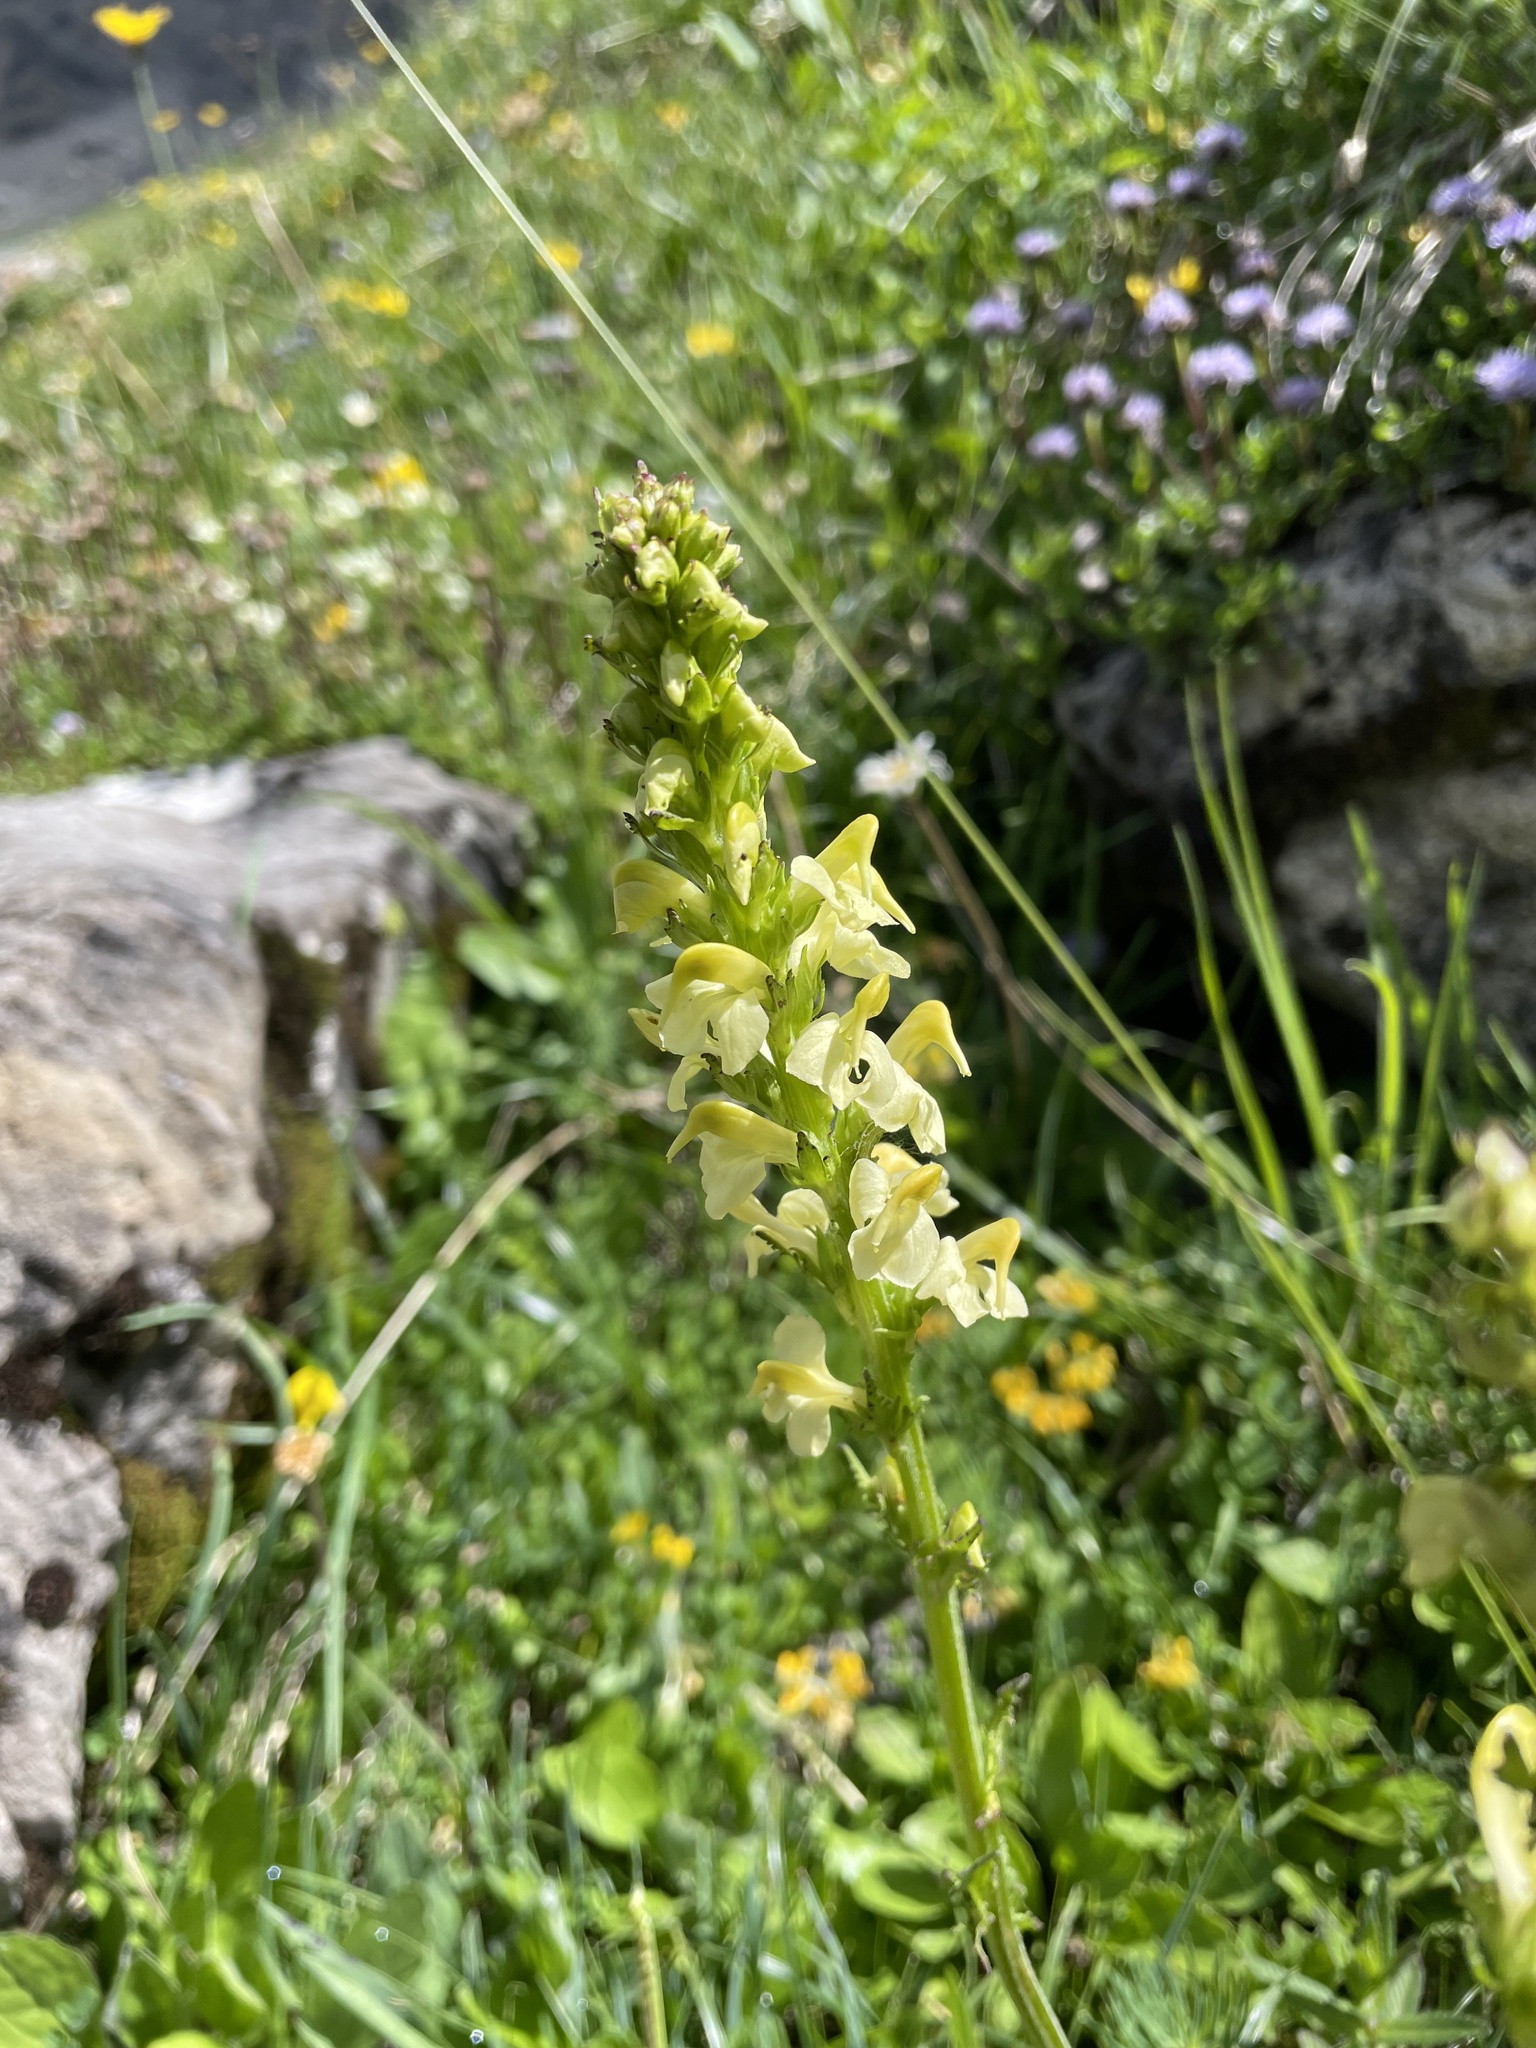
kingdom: Plantae
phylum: Tracheophyta
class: Magnoliopsida
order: Lamiales
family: Orobanchaceae
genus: Pedicularis
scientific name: Pedicularis ascendens
